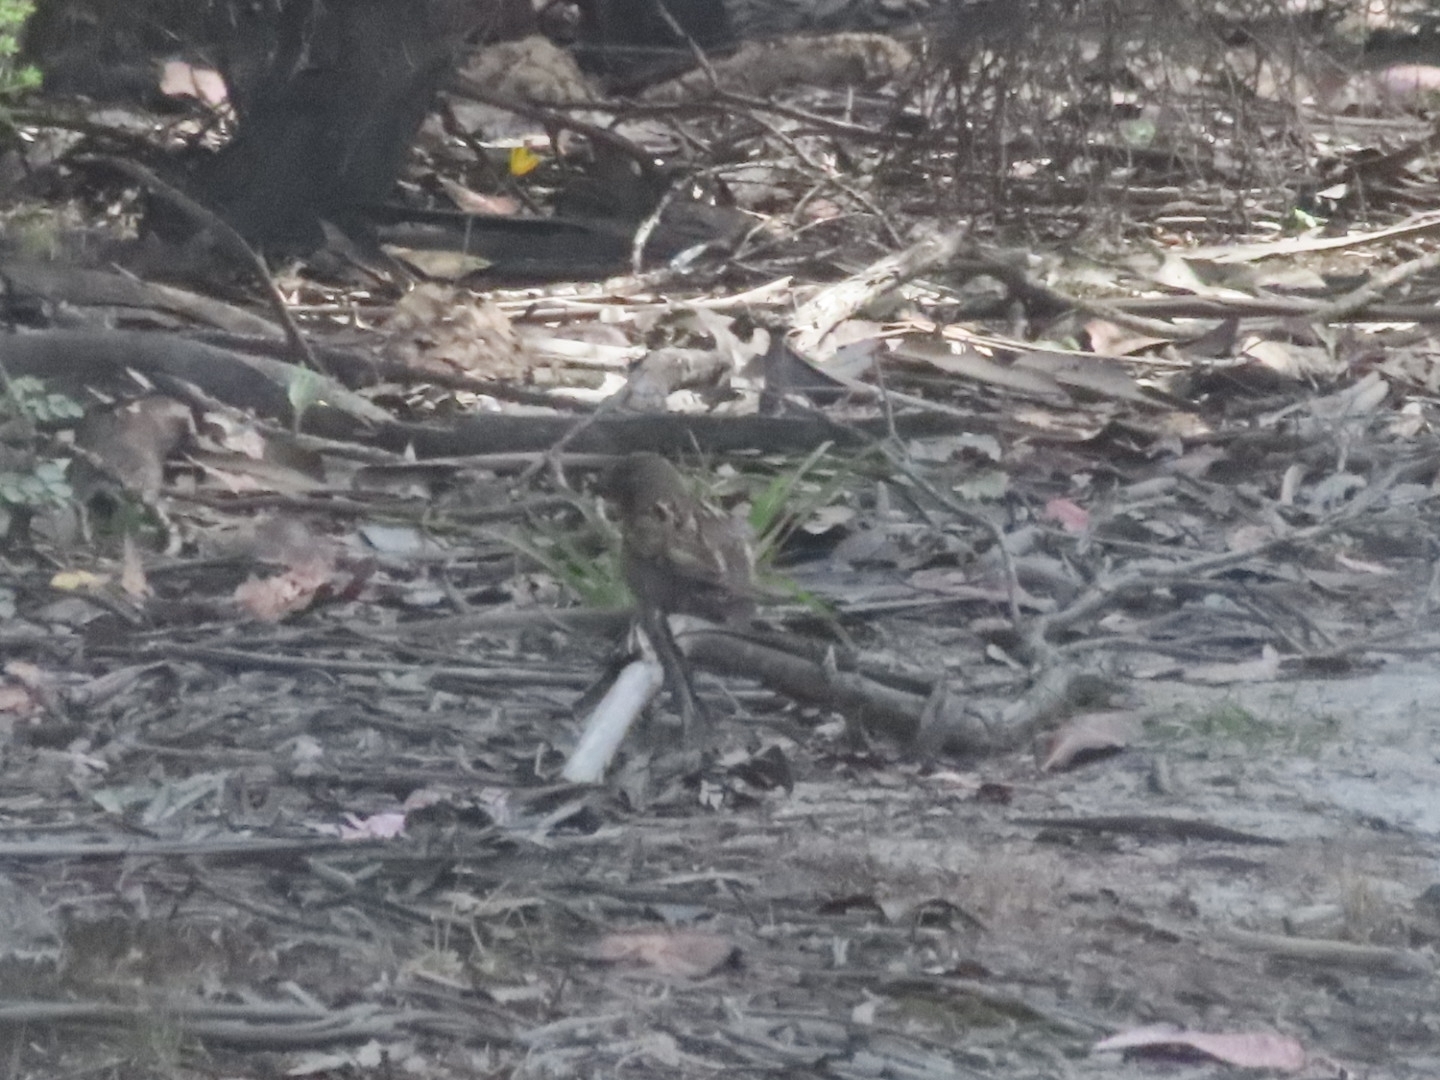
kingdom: Animalia
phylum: Chordata
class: Aves
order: Passeriformes
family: Passeridae
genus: Passer
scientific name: Passer domesticus
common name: House sparrow
